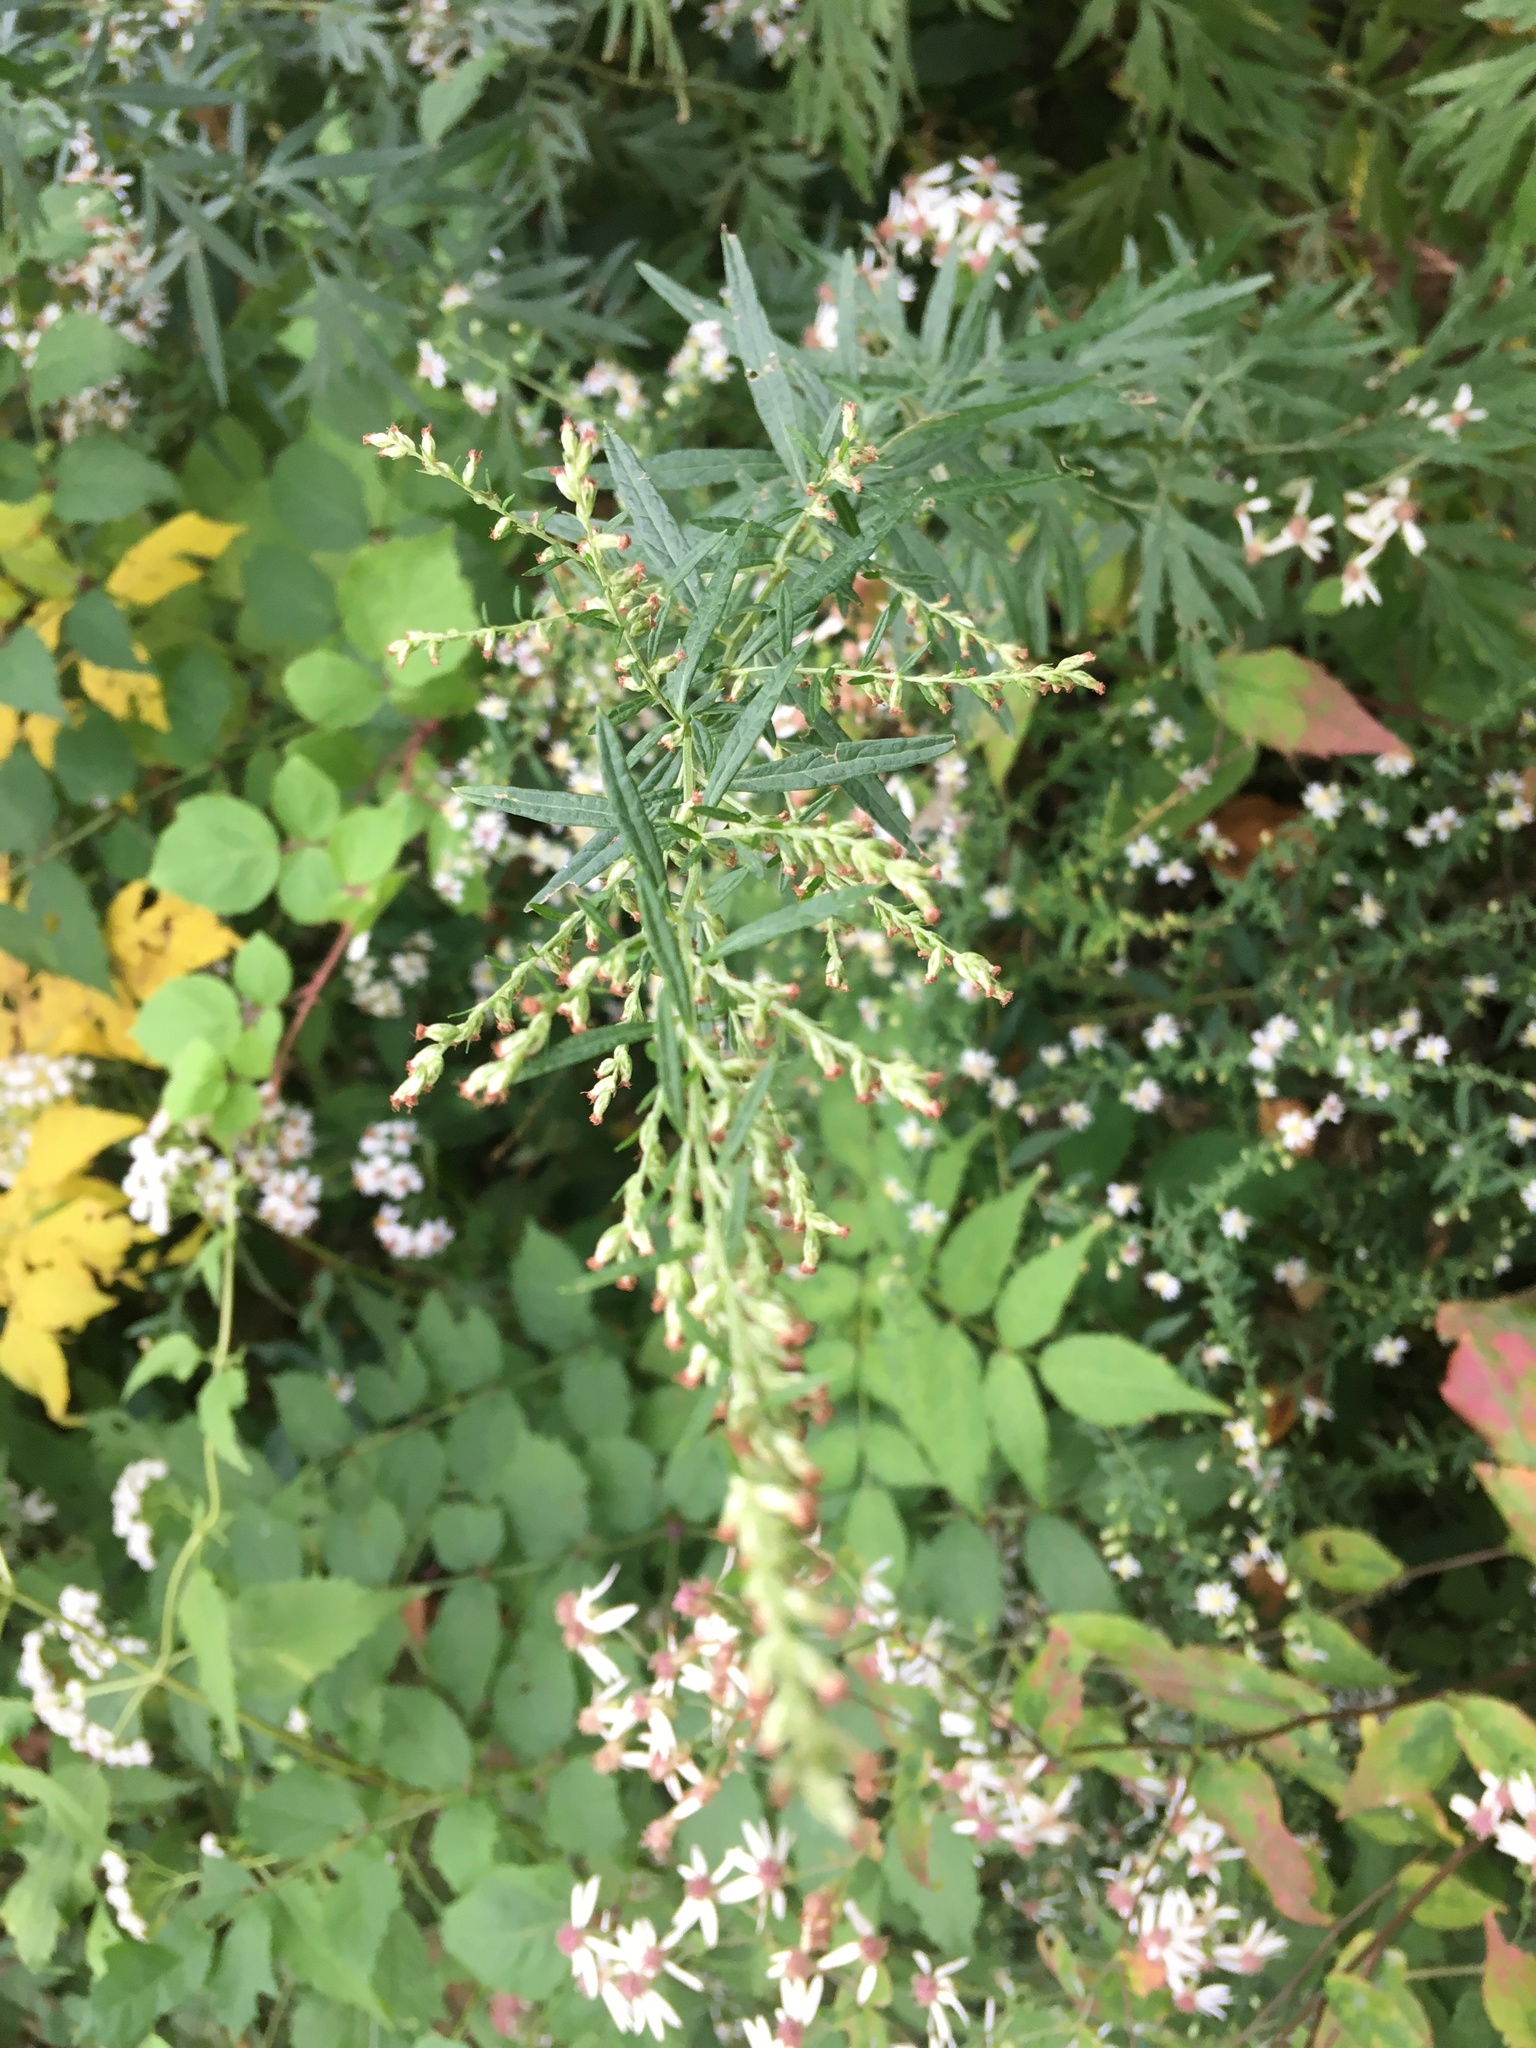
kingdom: Plantae
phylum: Tracheophyta
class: Magnoliopsida
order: Asterales
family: Asteraceae
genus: Artemisia
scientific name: Artemisia vulgaris
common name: Mugwort
